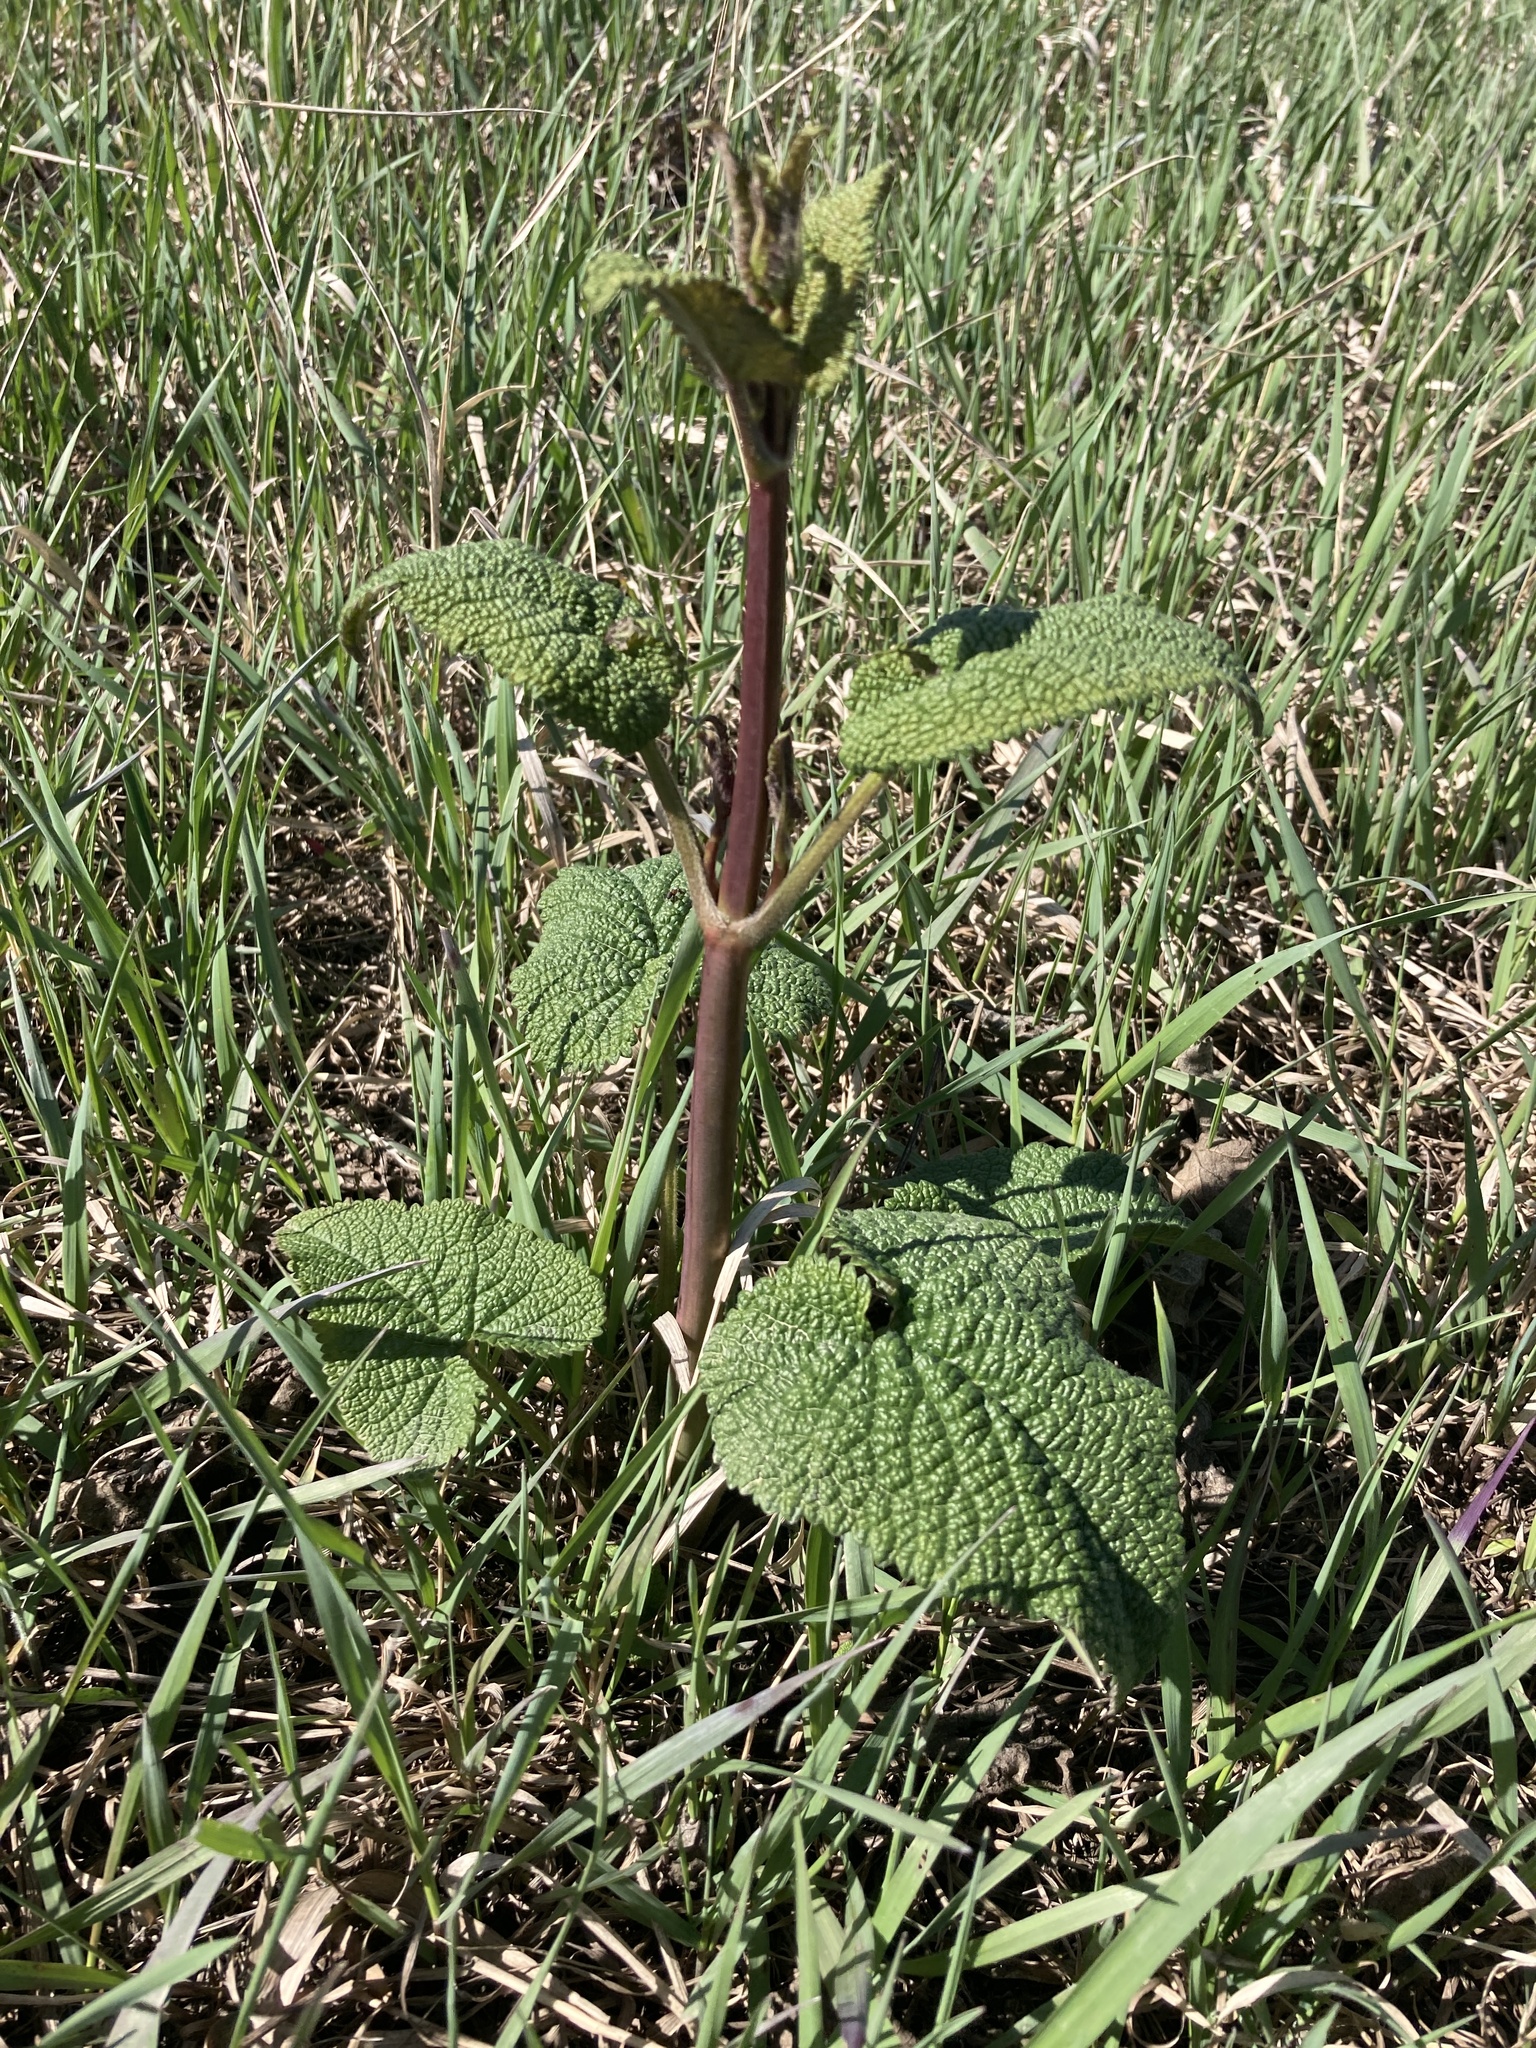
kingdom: Plantae
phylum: Tracheophyta
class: Magnoliopsida
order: Lamiales
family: Lamiaceae
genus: Phlomoides
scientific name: Phlomoides tuberosa
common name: Tuberous jerusalem sage
